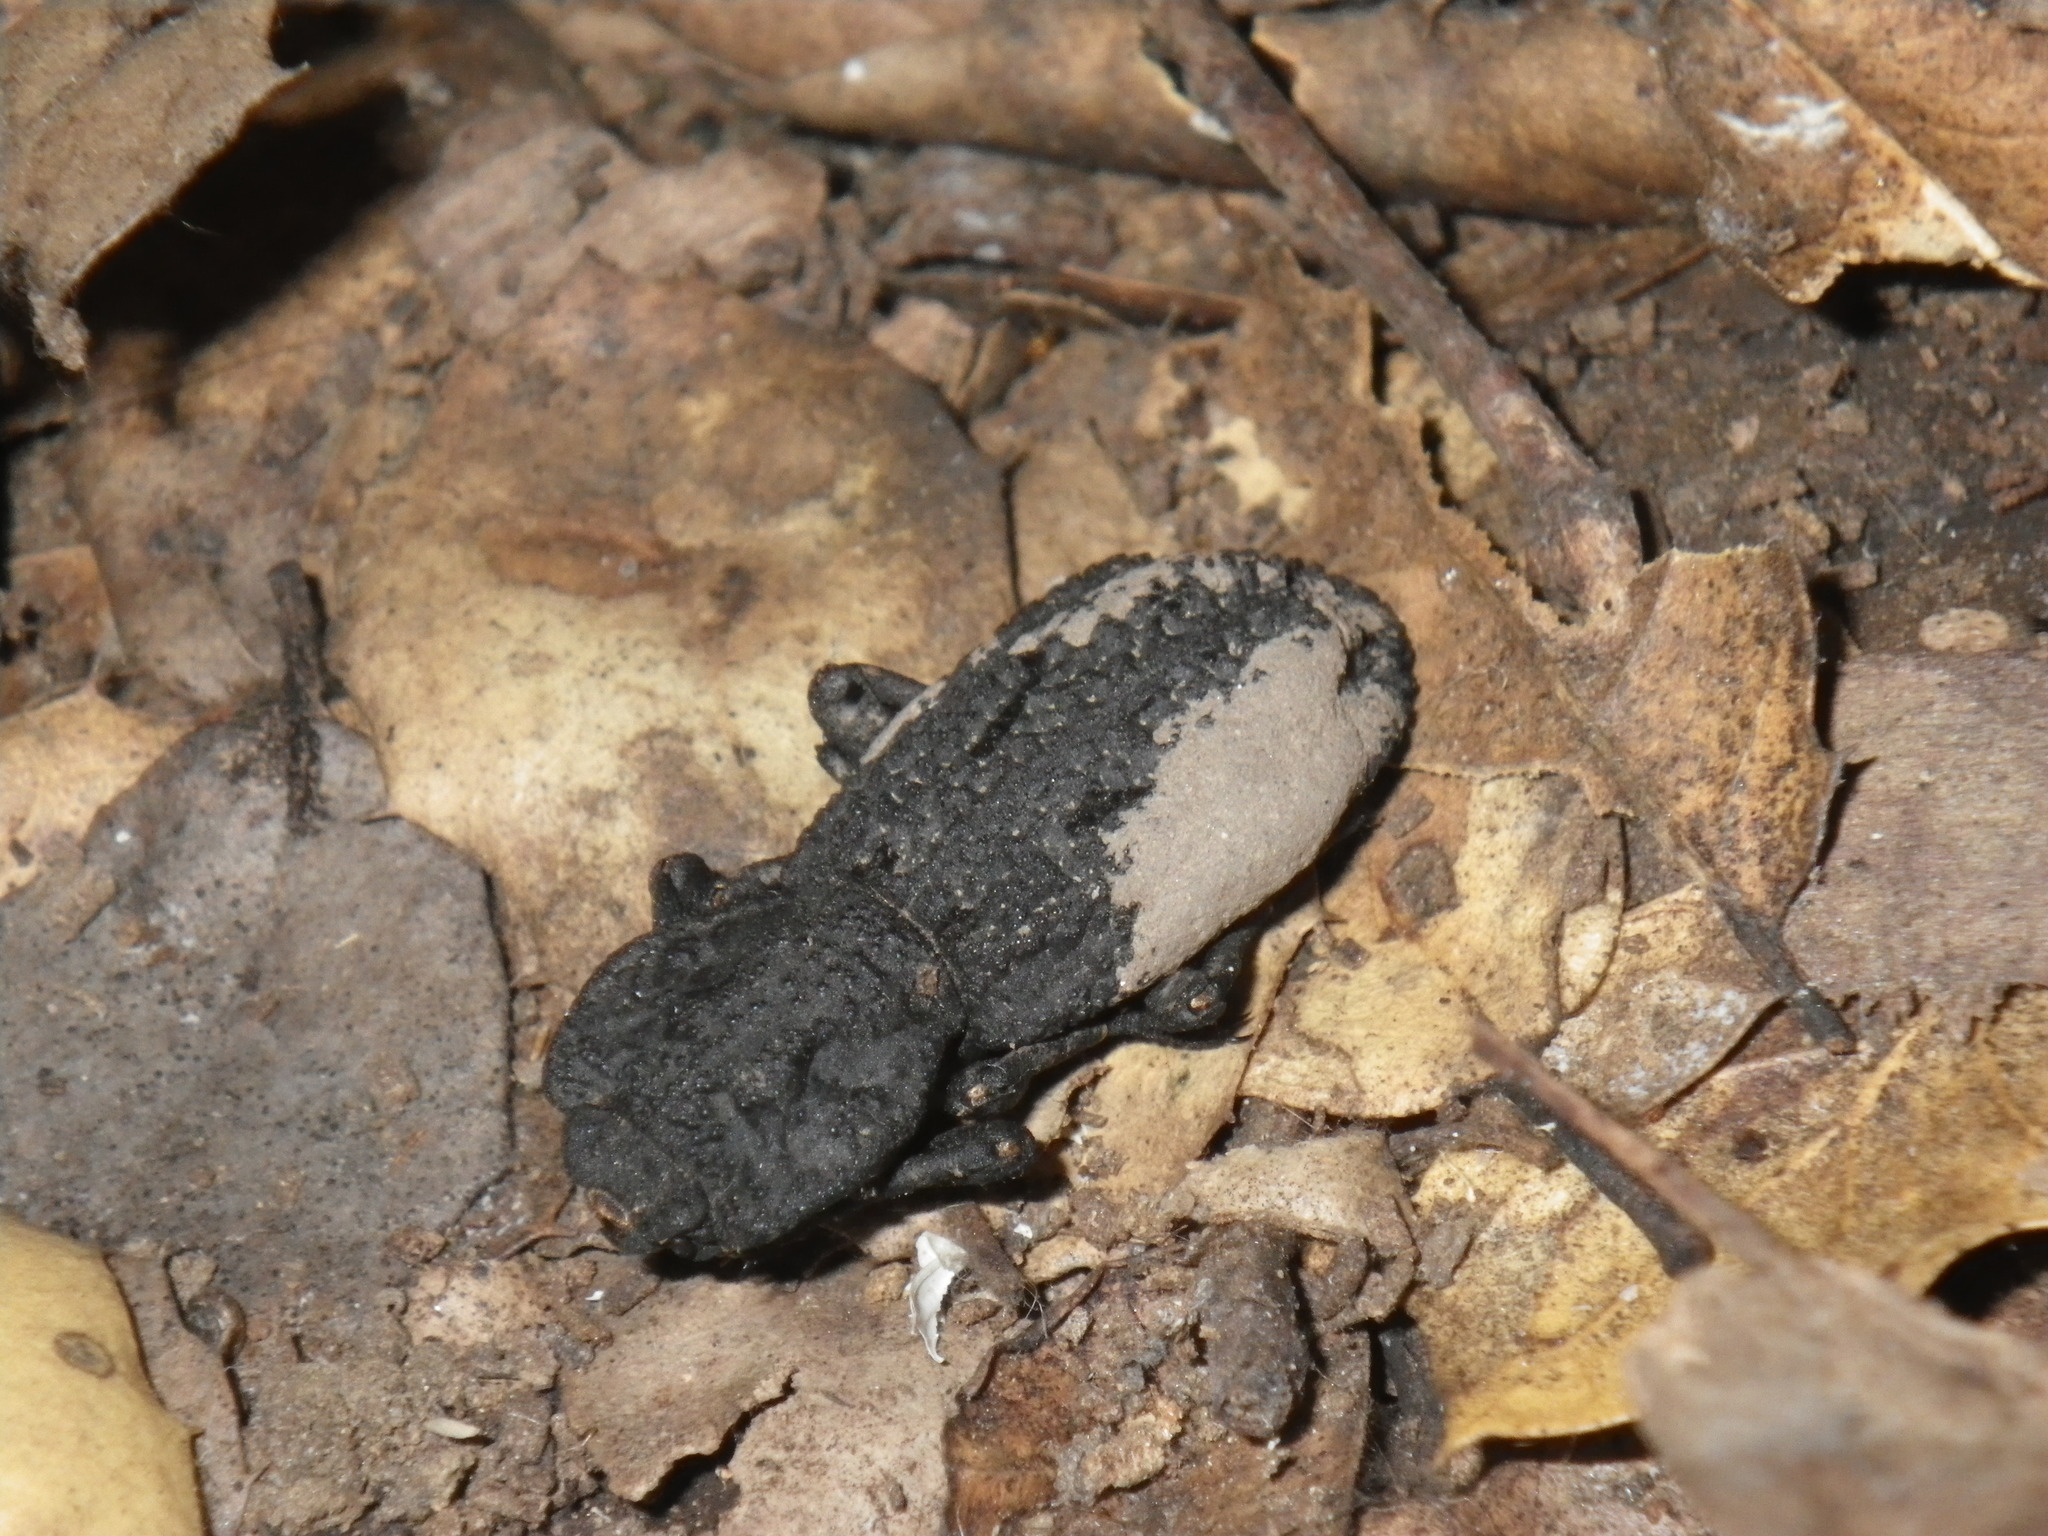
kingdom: Animalia
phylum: Arthropoda
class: Insecta
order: Coleoptera
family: Zopheridae
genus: Phloeodes
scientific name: Phloeodes diabolicus
